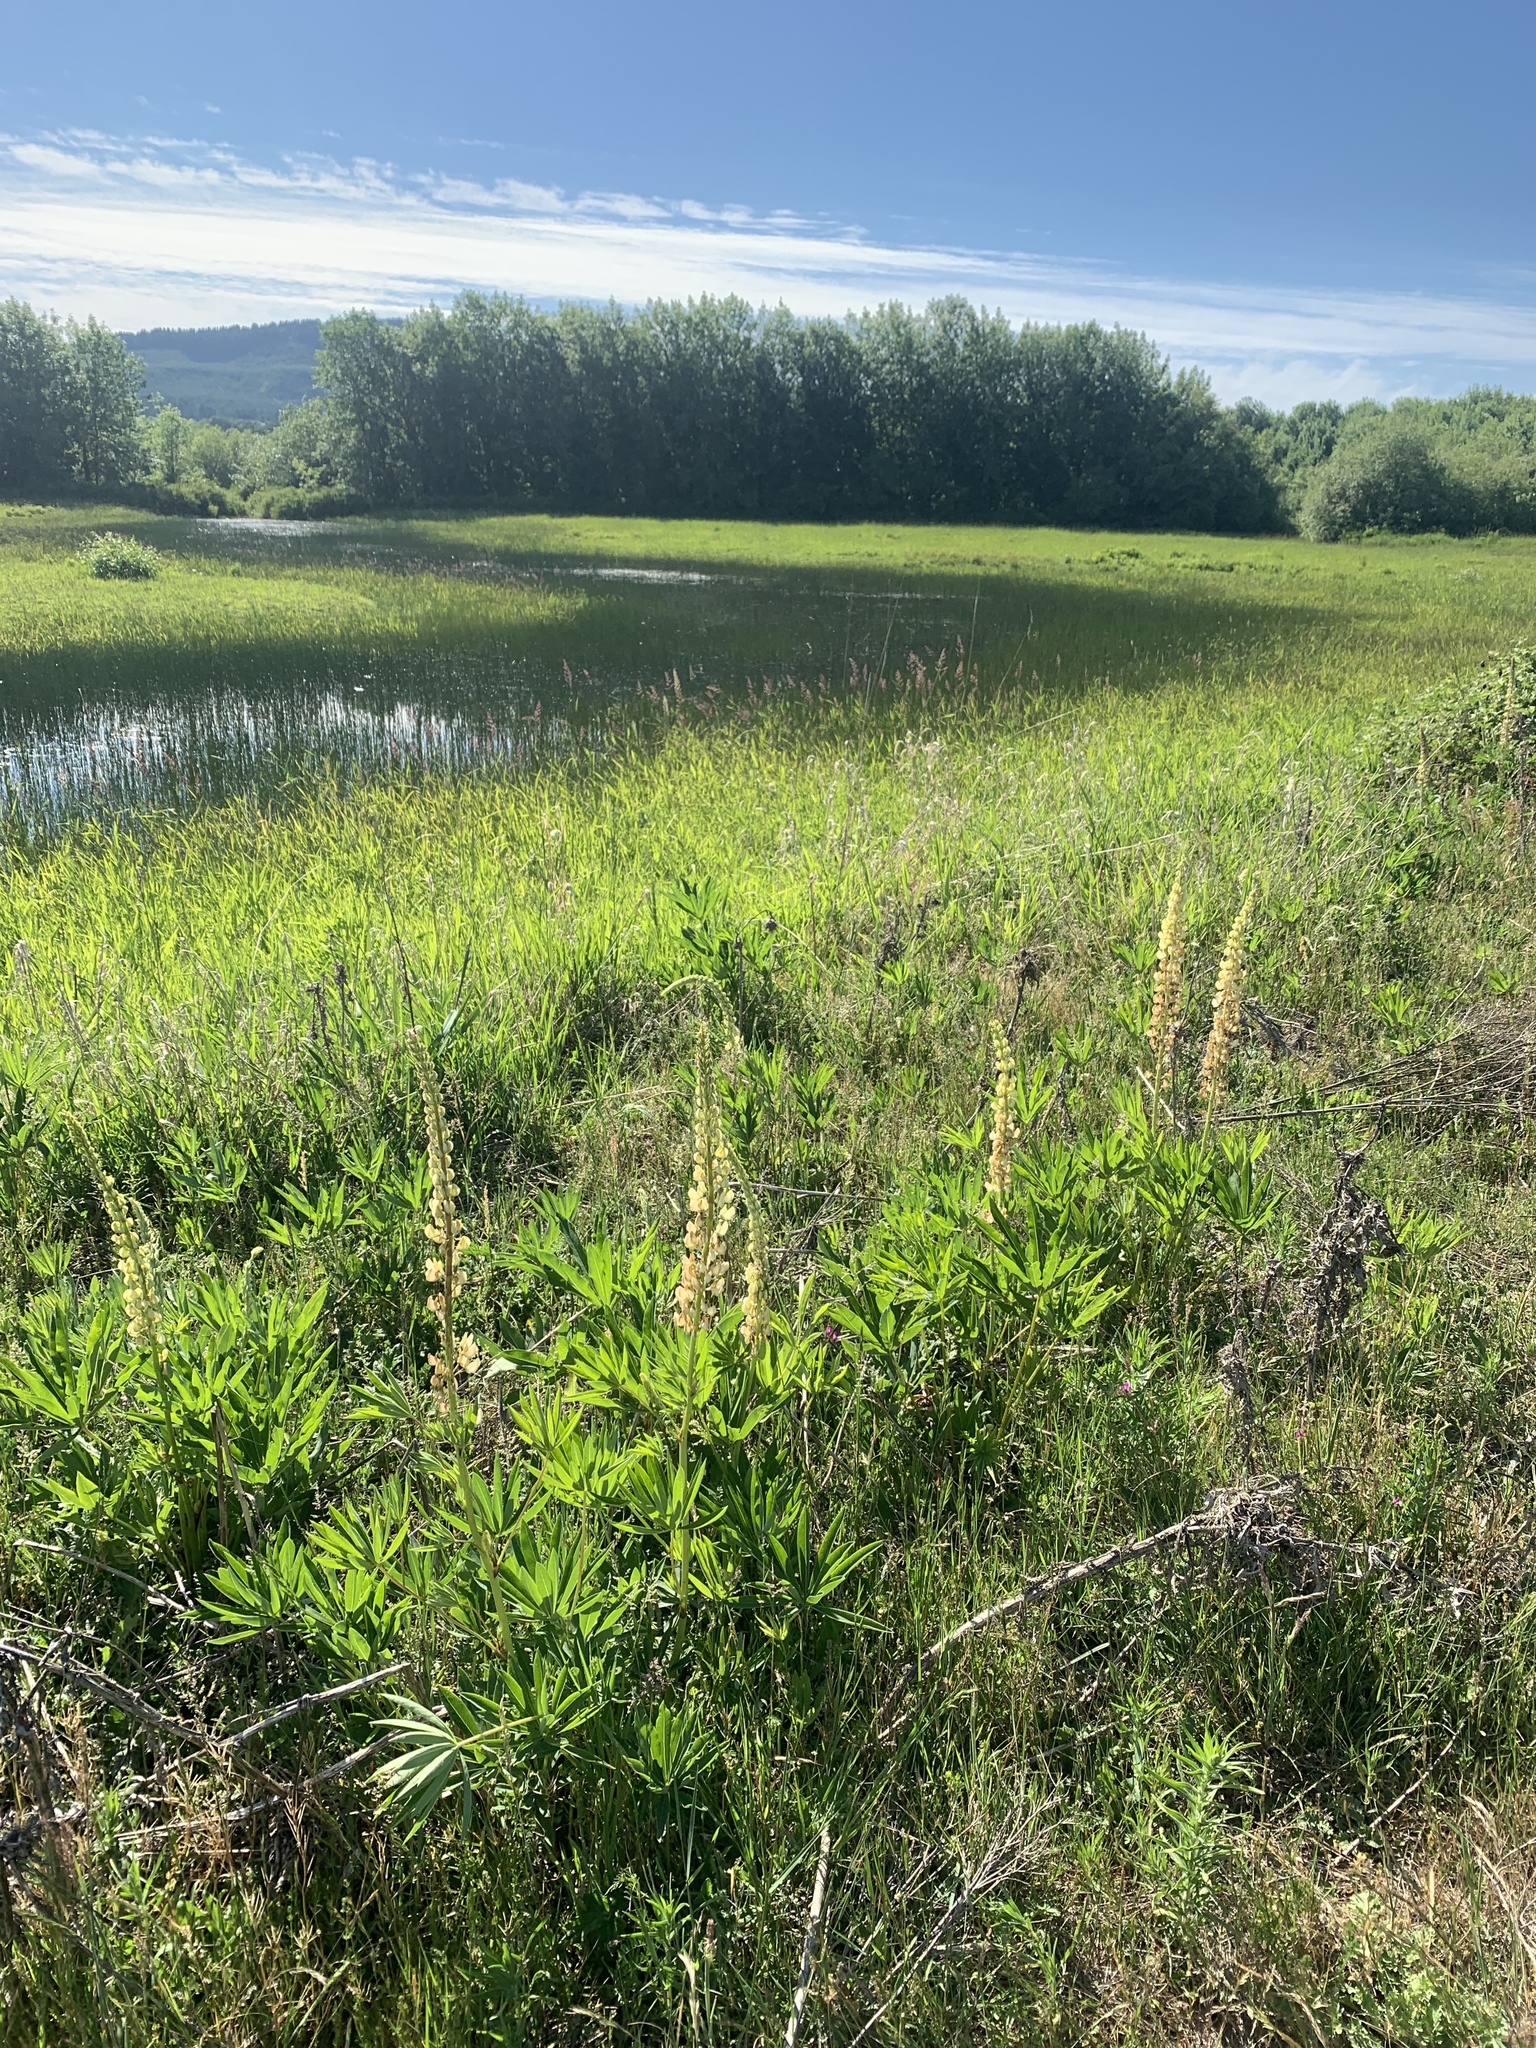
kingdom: Plantae
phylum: Tracheophyta
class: Magnoliopsida
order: Fabales
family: Fabaceae
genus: Lupinus
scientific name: Lupinus polyphyllus
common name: Garden lupin
